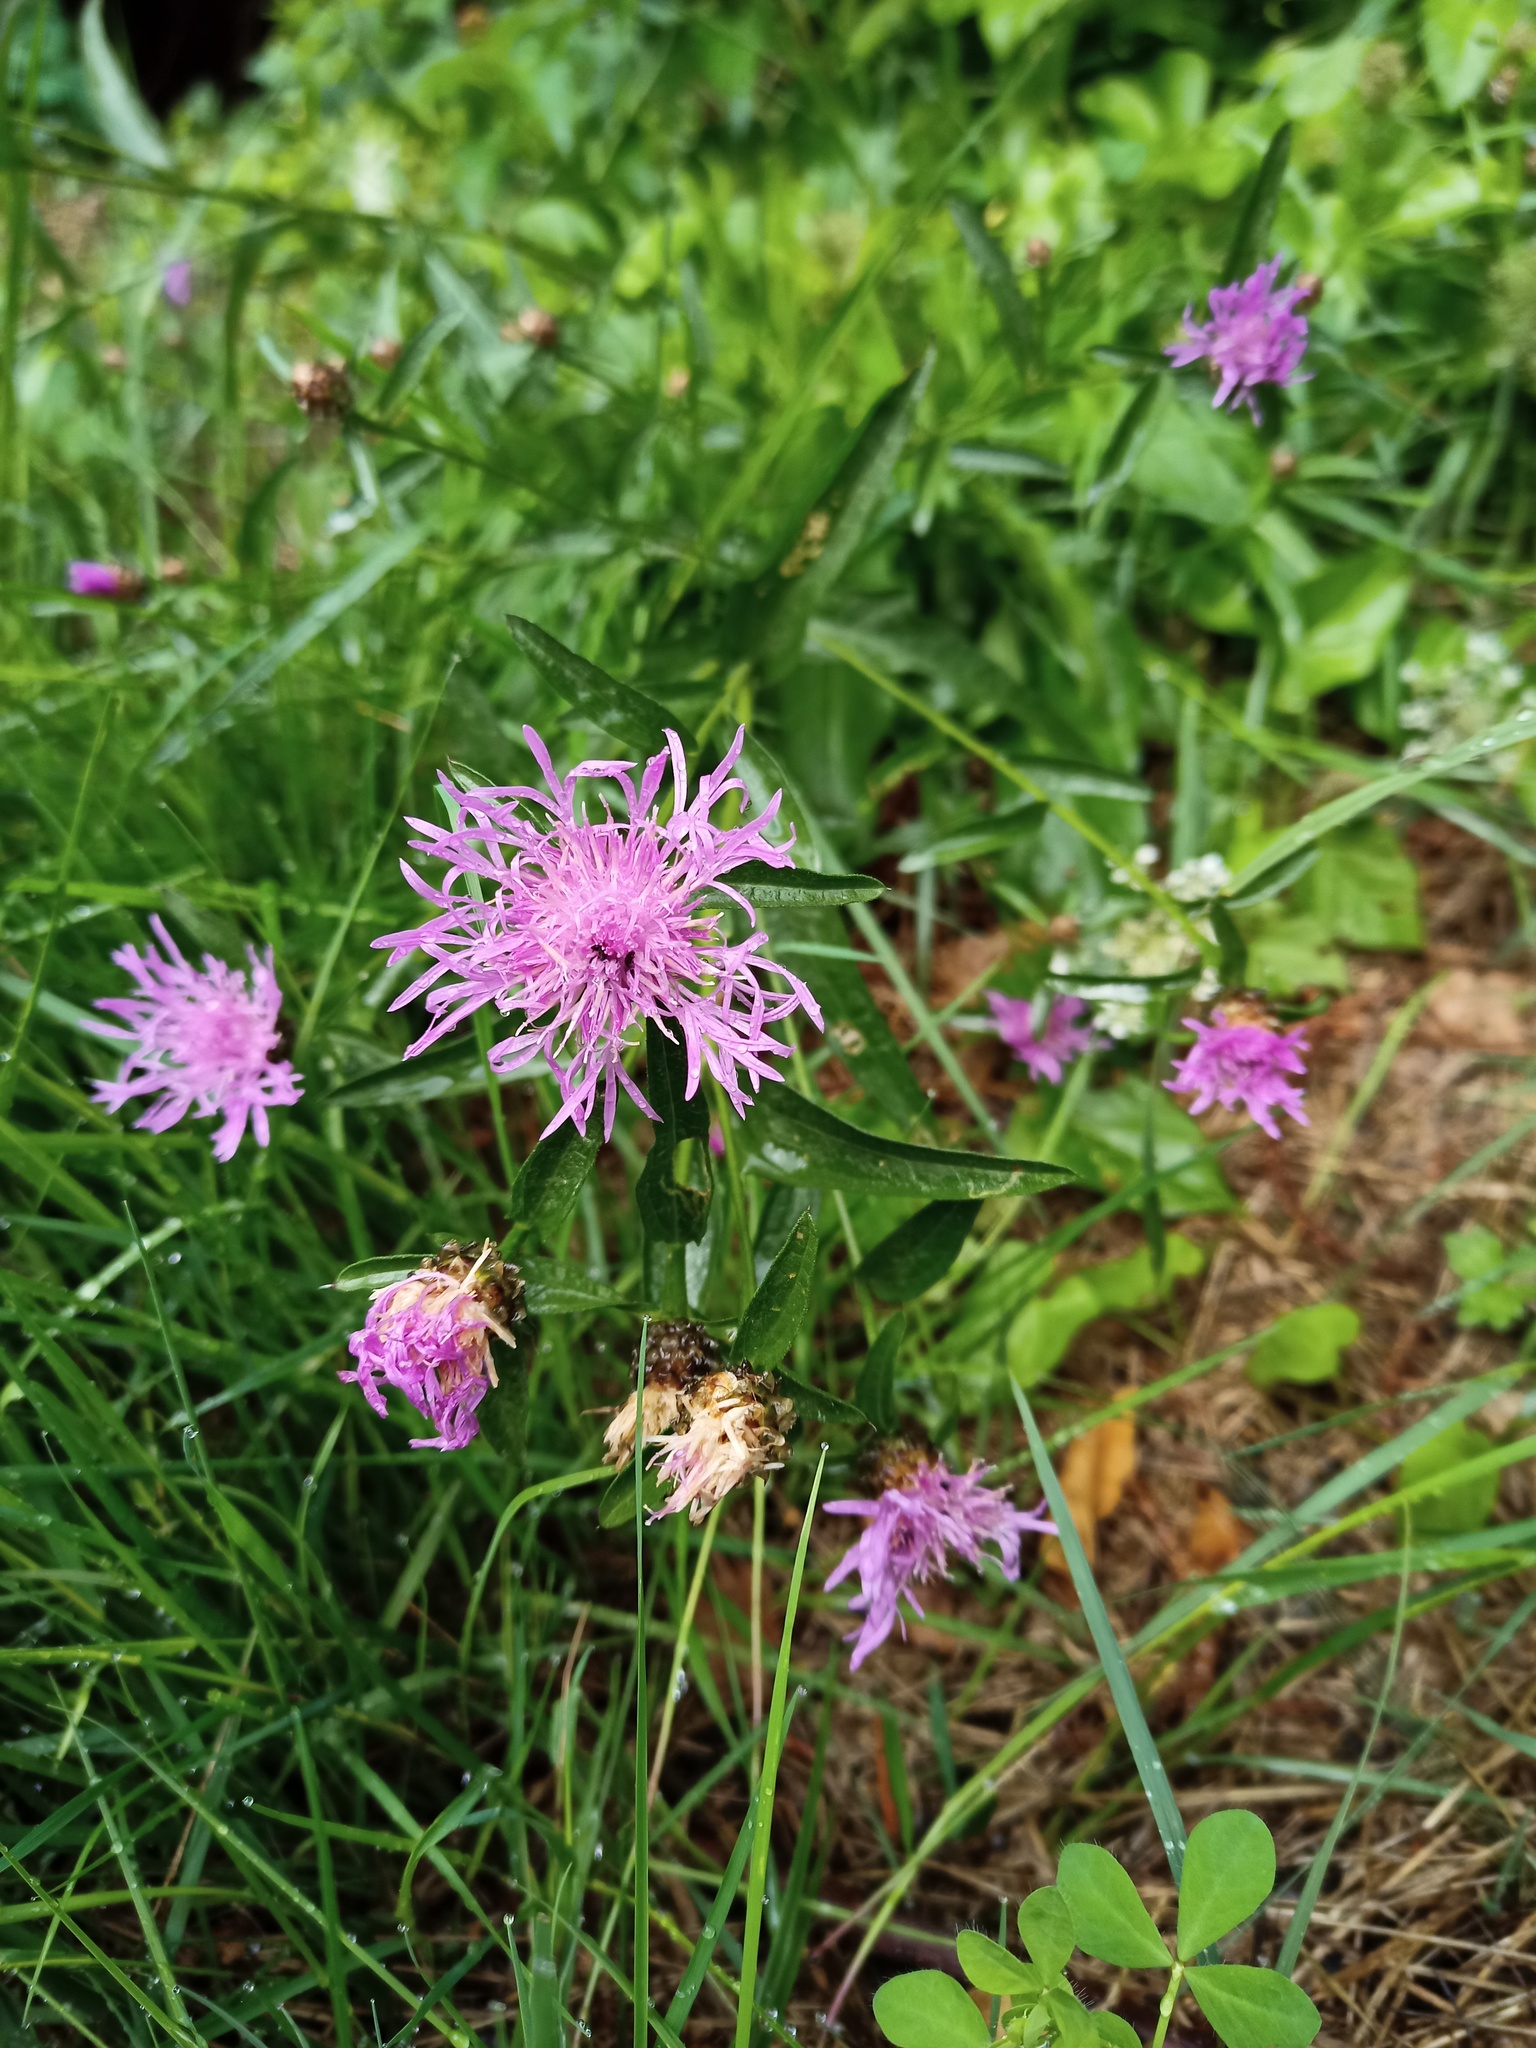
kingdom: Plantae
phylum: Tracheophyta
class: Magnoliopsida
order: Asterales
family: Asteraceae
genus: Centaurea
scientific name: Centaurea jacea
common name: Brown knapweed
